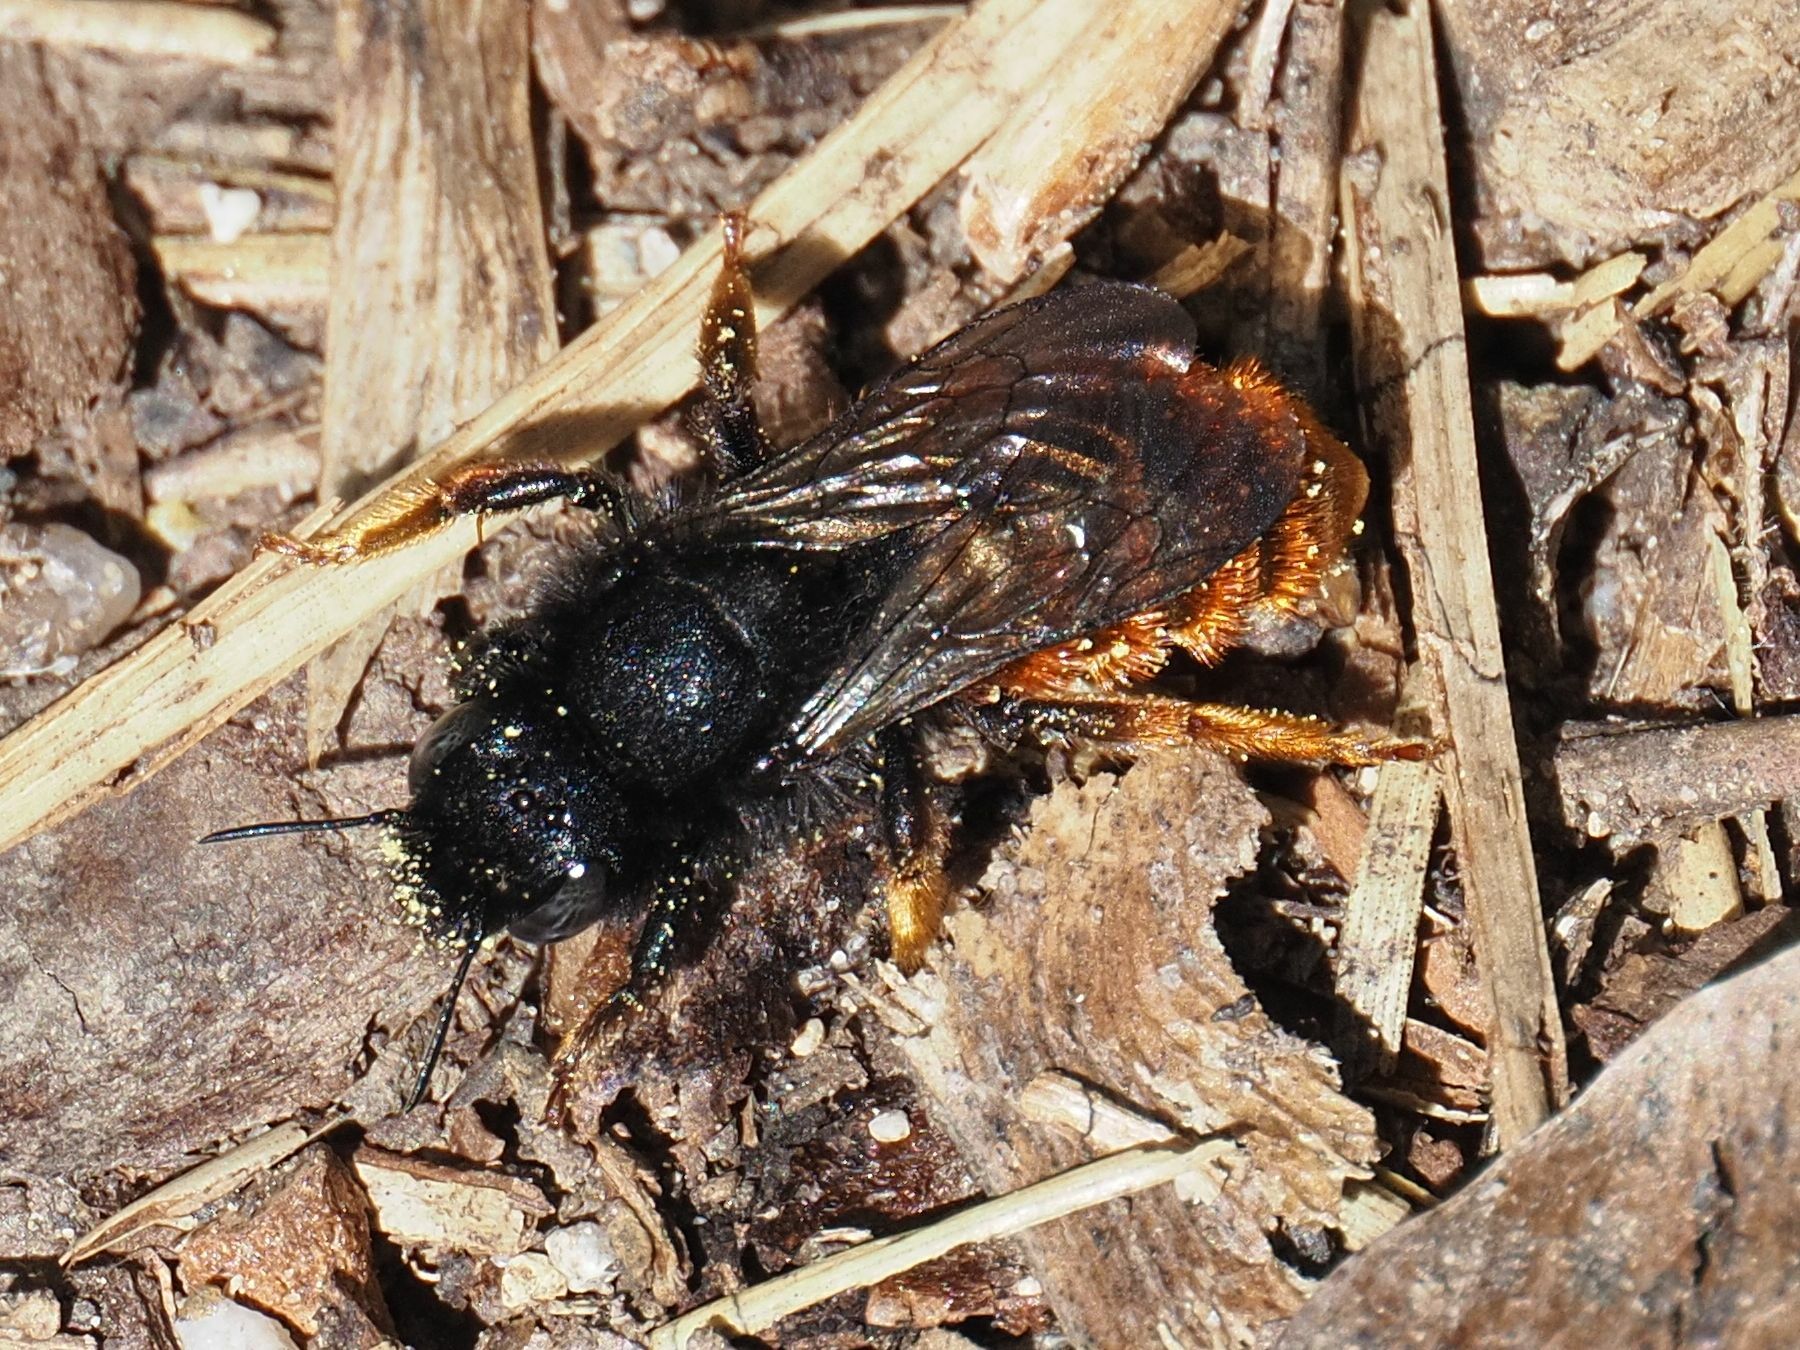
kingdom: Animalia
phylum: Arthropoda
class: Insecta
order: Hymenoptera
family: Megachilidae
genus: Osmia
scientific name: Osmia bicolor
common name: Red-tailed mason bee
